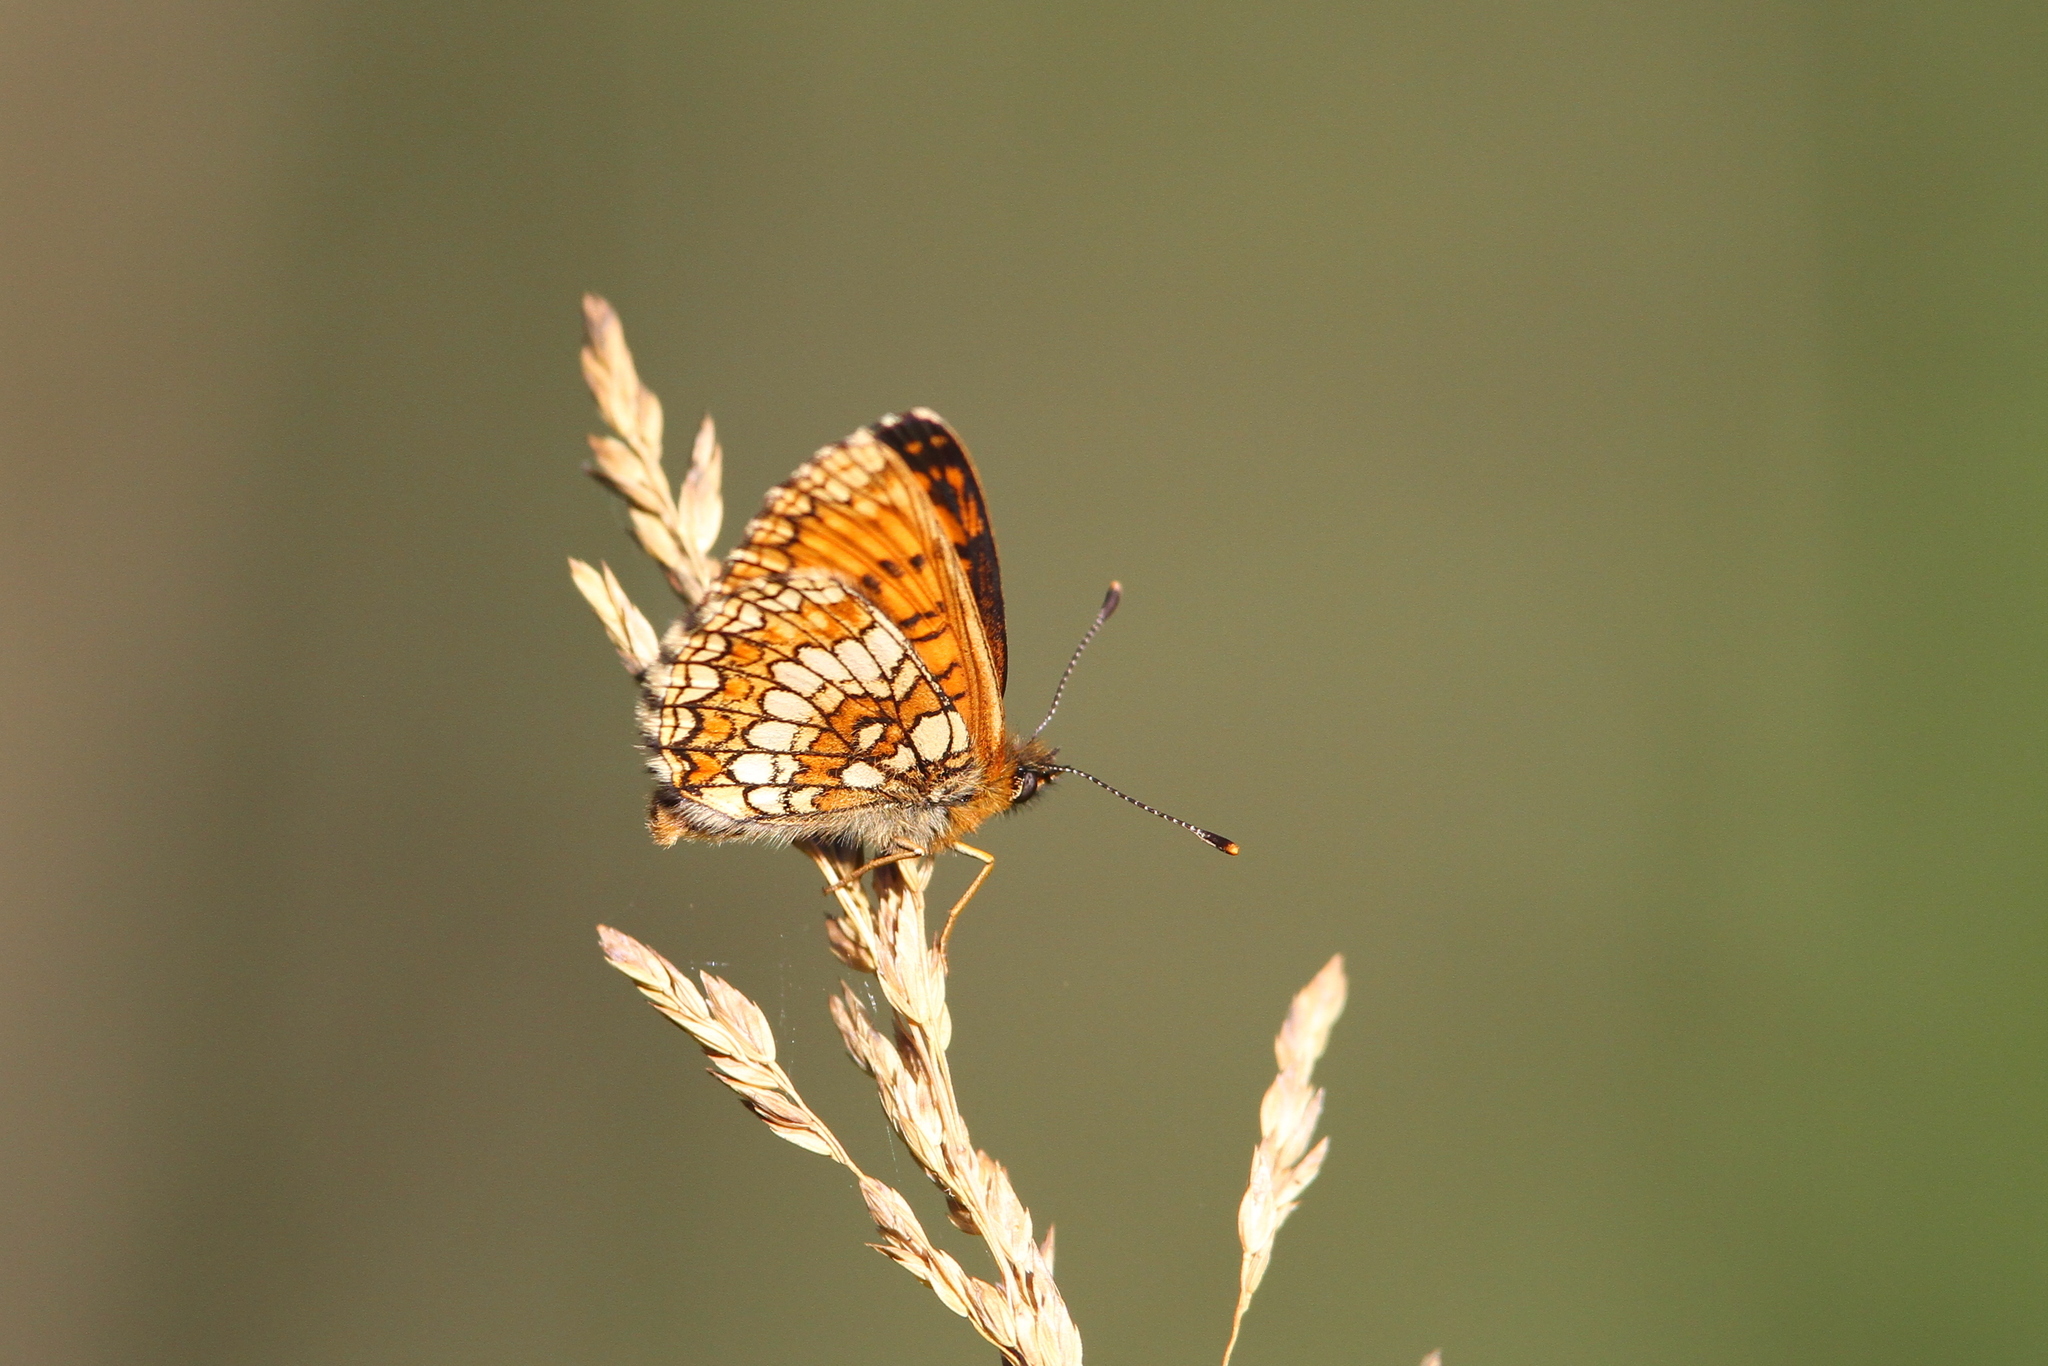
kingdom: Animalia
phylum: Arthropoda
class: Insecta
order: Lepidoptera
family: Nymphalidae
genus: Melitaea
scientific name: Melitaea athalia
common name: Heath fritillary
